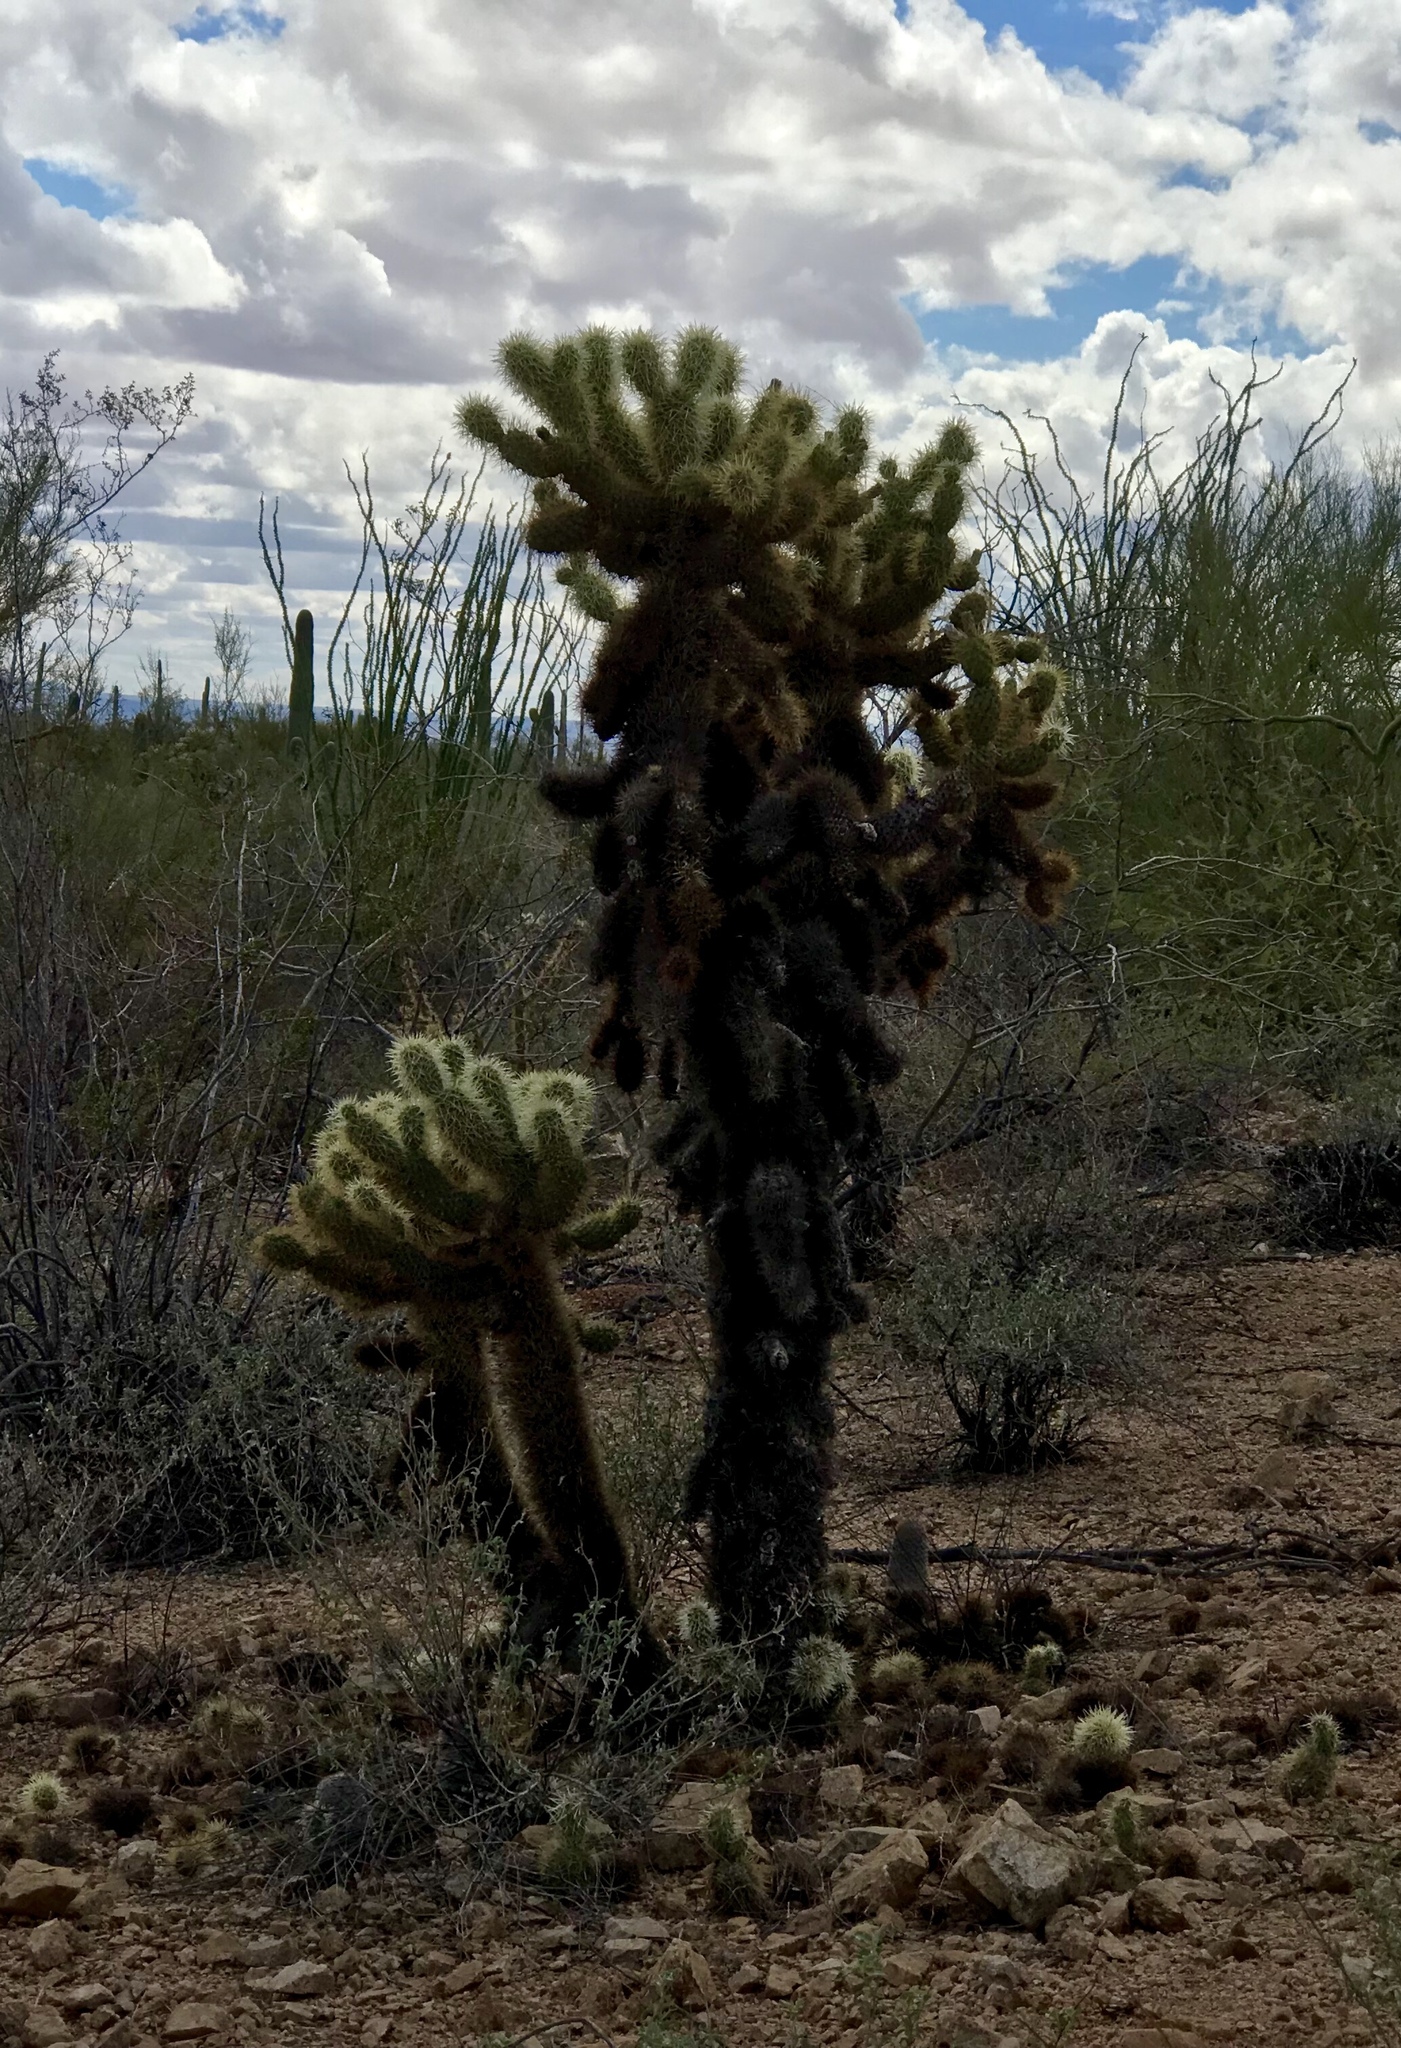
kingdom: Plantae
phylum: Tracheophyta
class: Magnoliopsida
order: Caryophyllales
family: Cactaceae
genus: Cylindropuntia
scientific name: Cylindropuntia fosbergii
